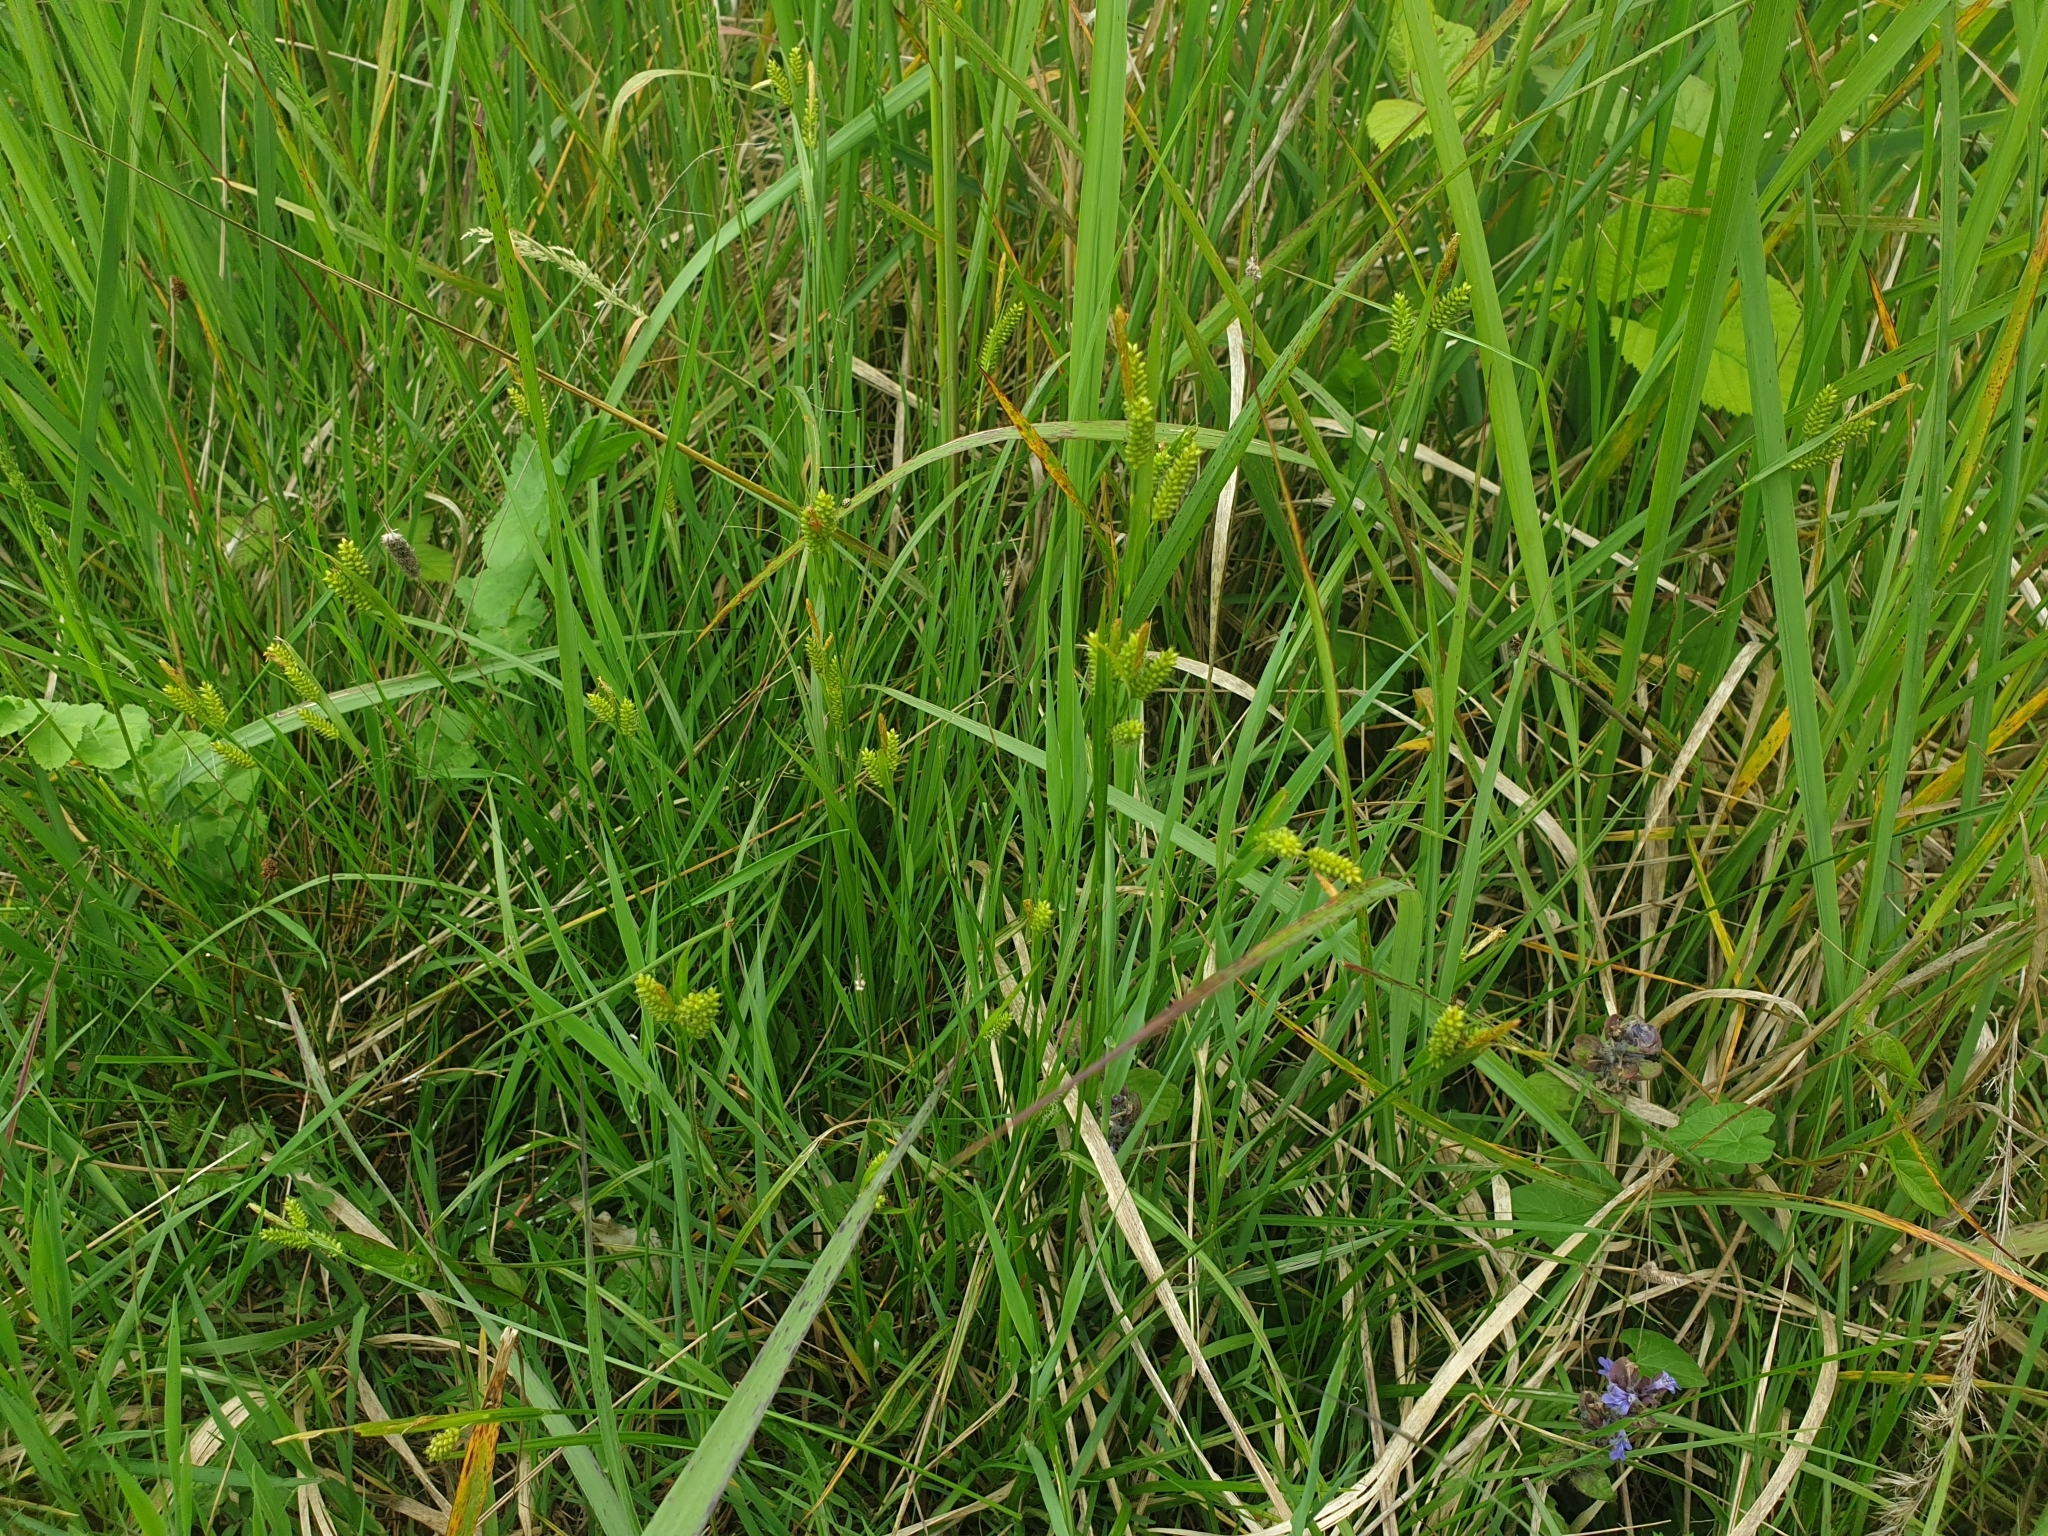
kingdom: Plantae
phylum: Tracheophyta
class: Liliopsida
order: Poales
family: Cyperaceae
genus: Carex
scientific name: Carex pallescens
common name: Pale sedge
